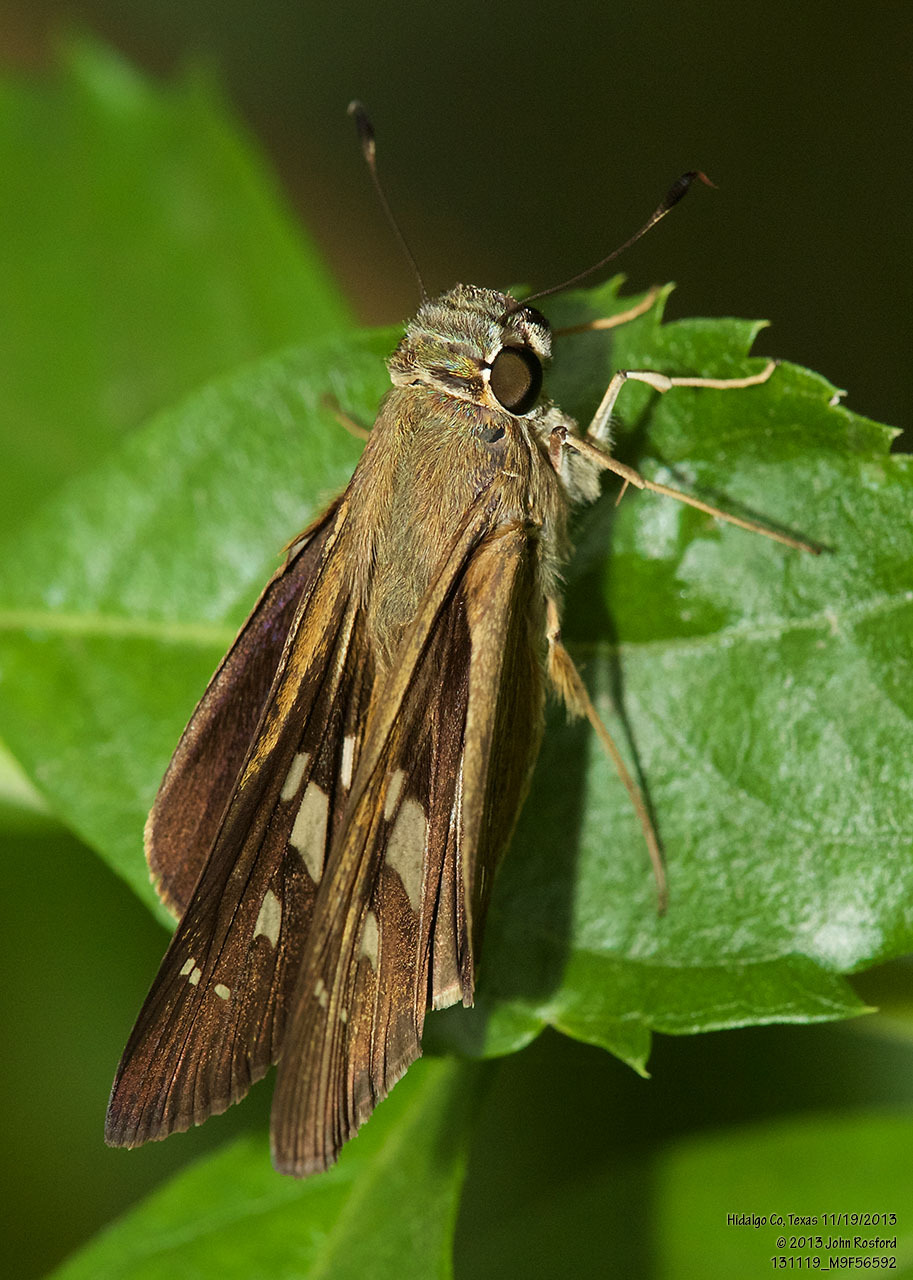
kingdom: Animalia
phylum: Arthropoda
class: Insecta
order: Lepidoptera
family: Hesperiidae
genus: Calpodes
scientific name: Calpodes ethlius
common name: Brazilian skipper
